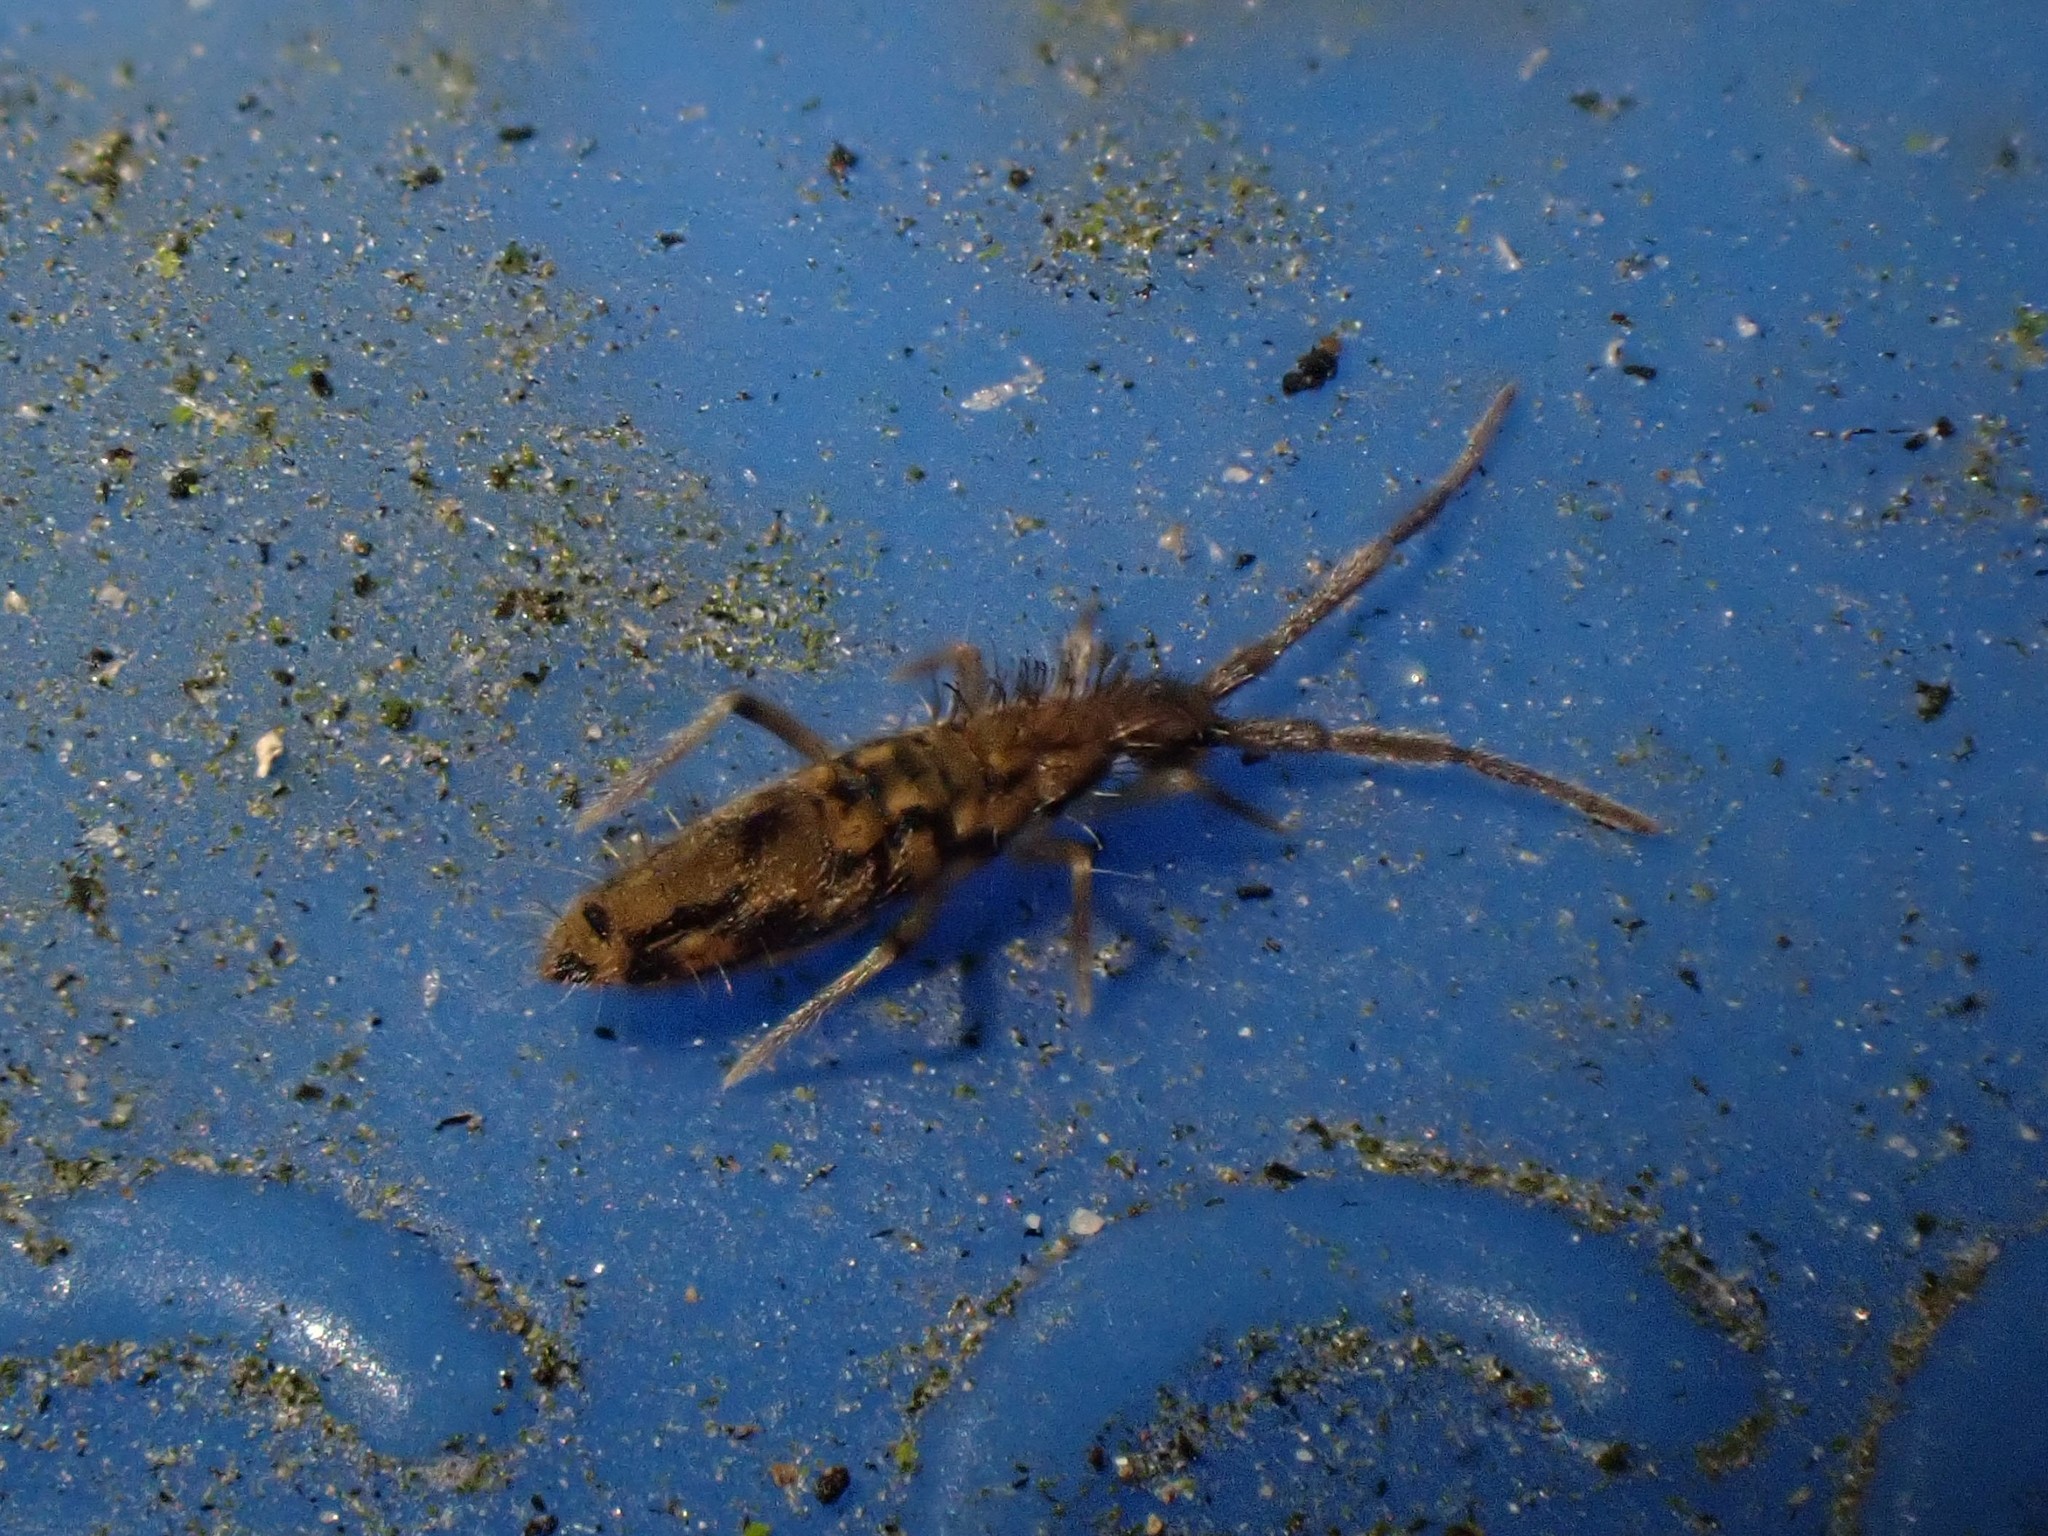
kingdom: Animalia
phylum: Arthropoda
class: Collembola
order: Entomobryomorpha
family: Entomobryidae
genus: Entomobrya
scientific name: Entomobrya katzi
